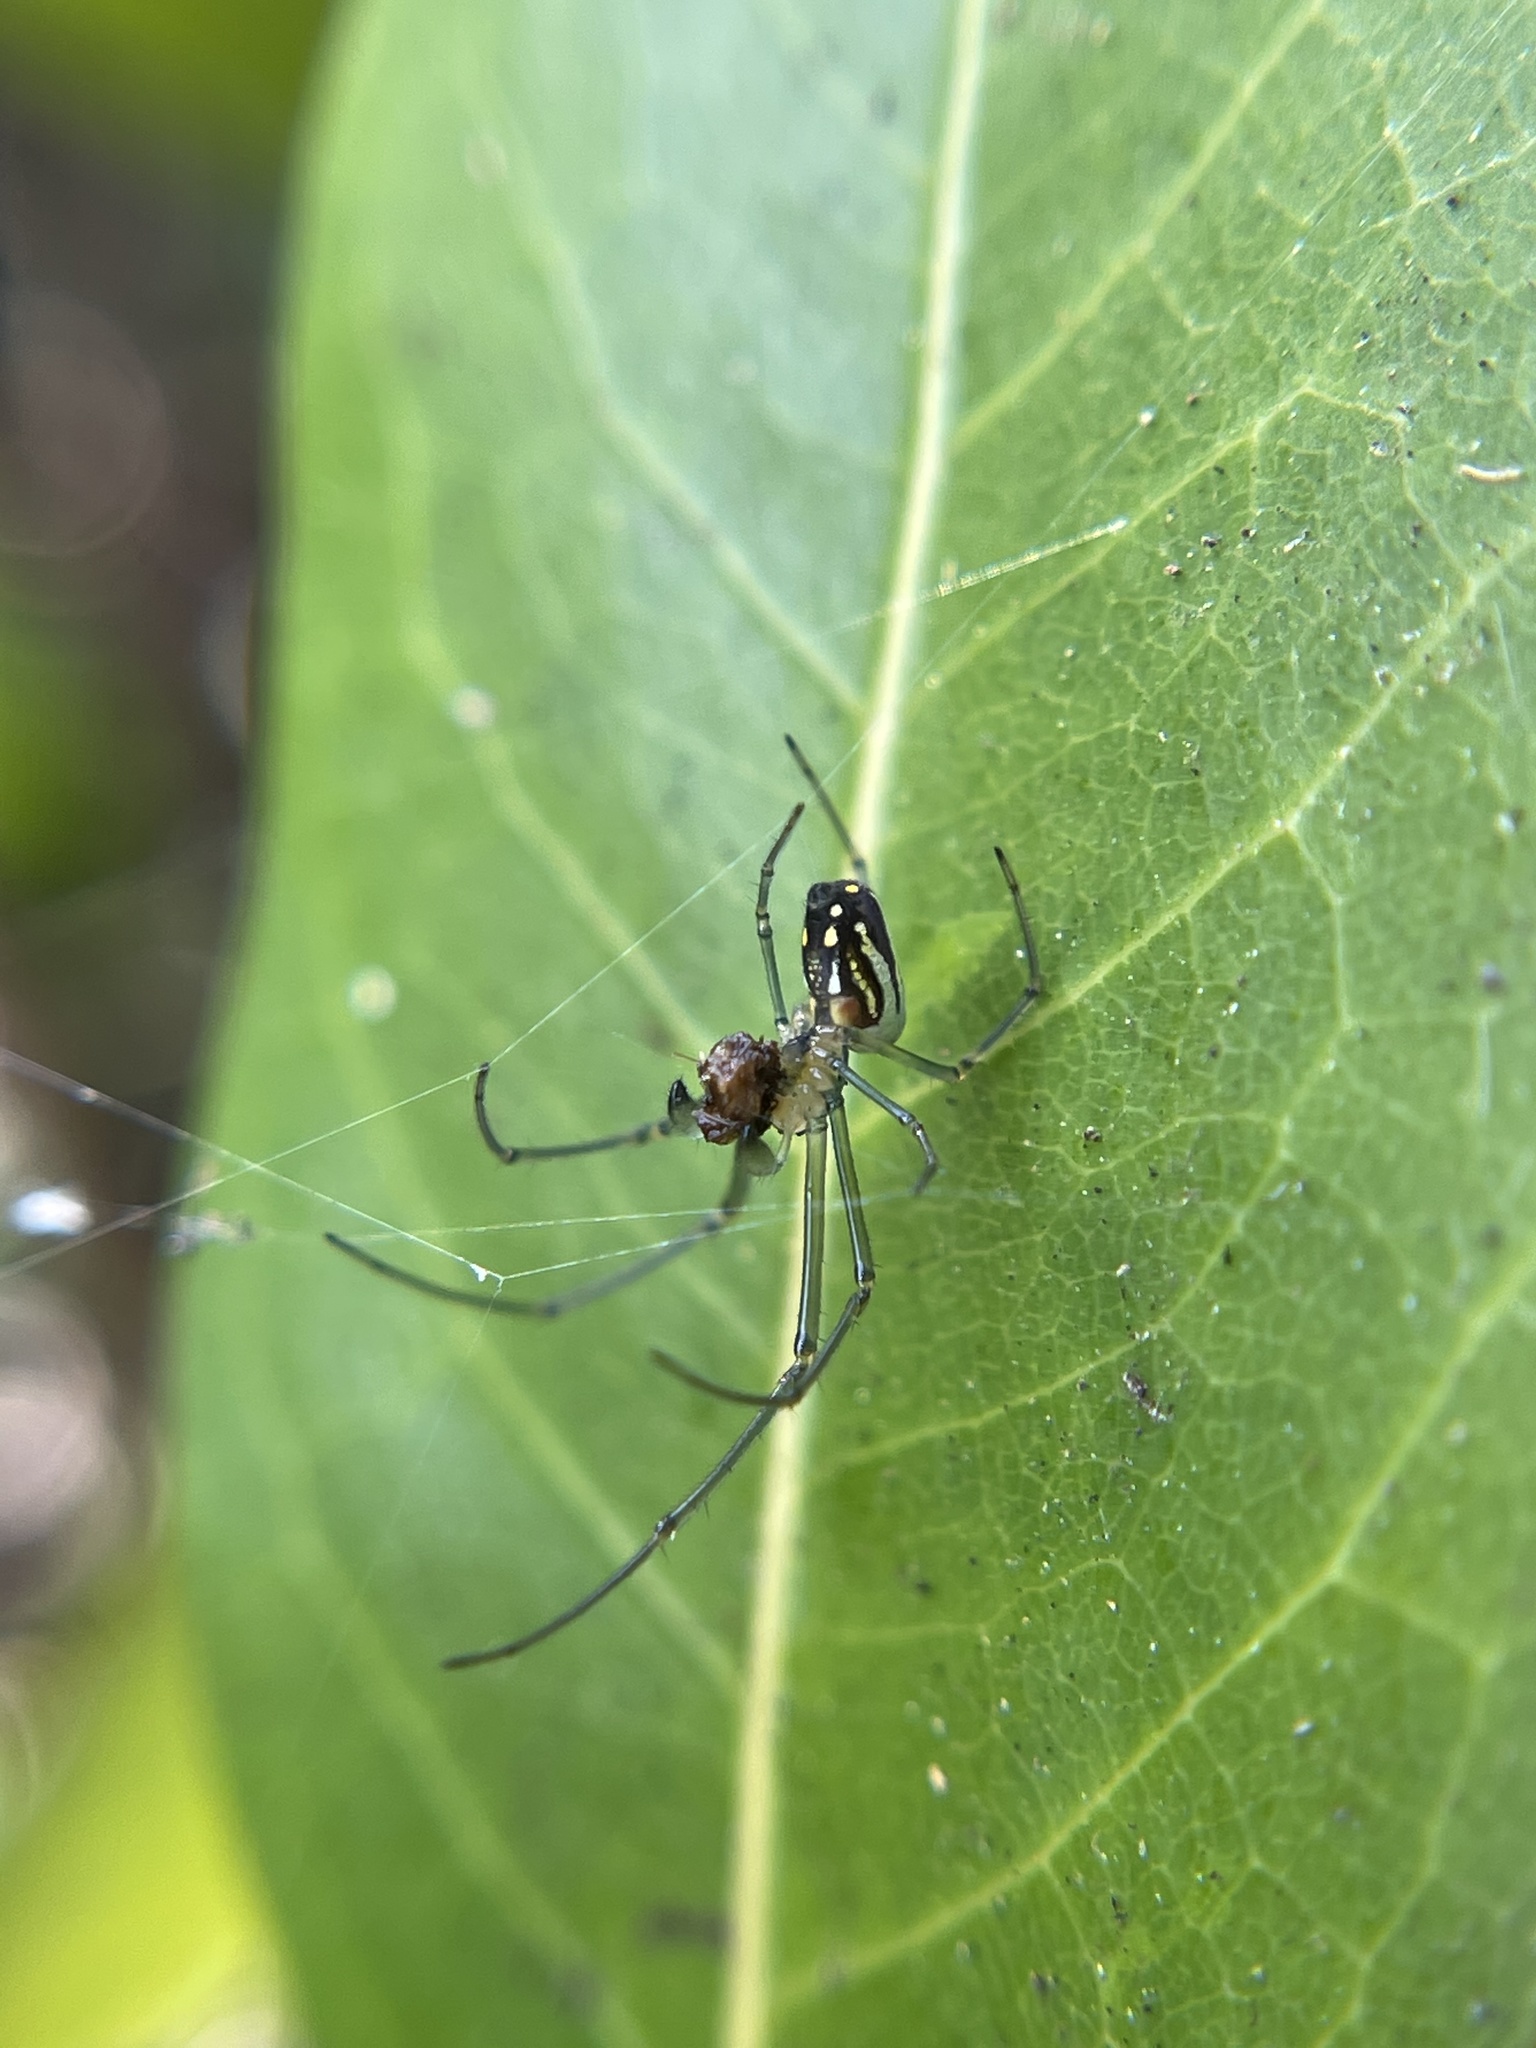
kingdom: Animalia
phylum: Arthropoda
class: Arachnida
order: Araneae
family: Tetragnathidae
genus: Leucauge
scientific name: Leucauge argyra
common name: Longjawed orb weavers
